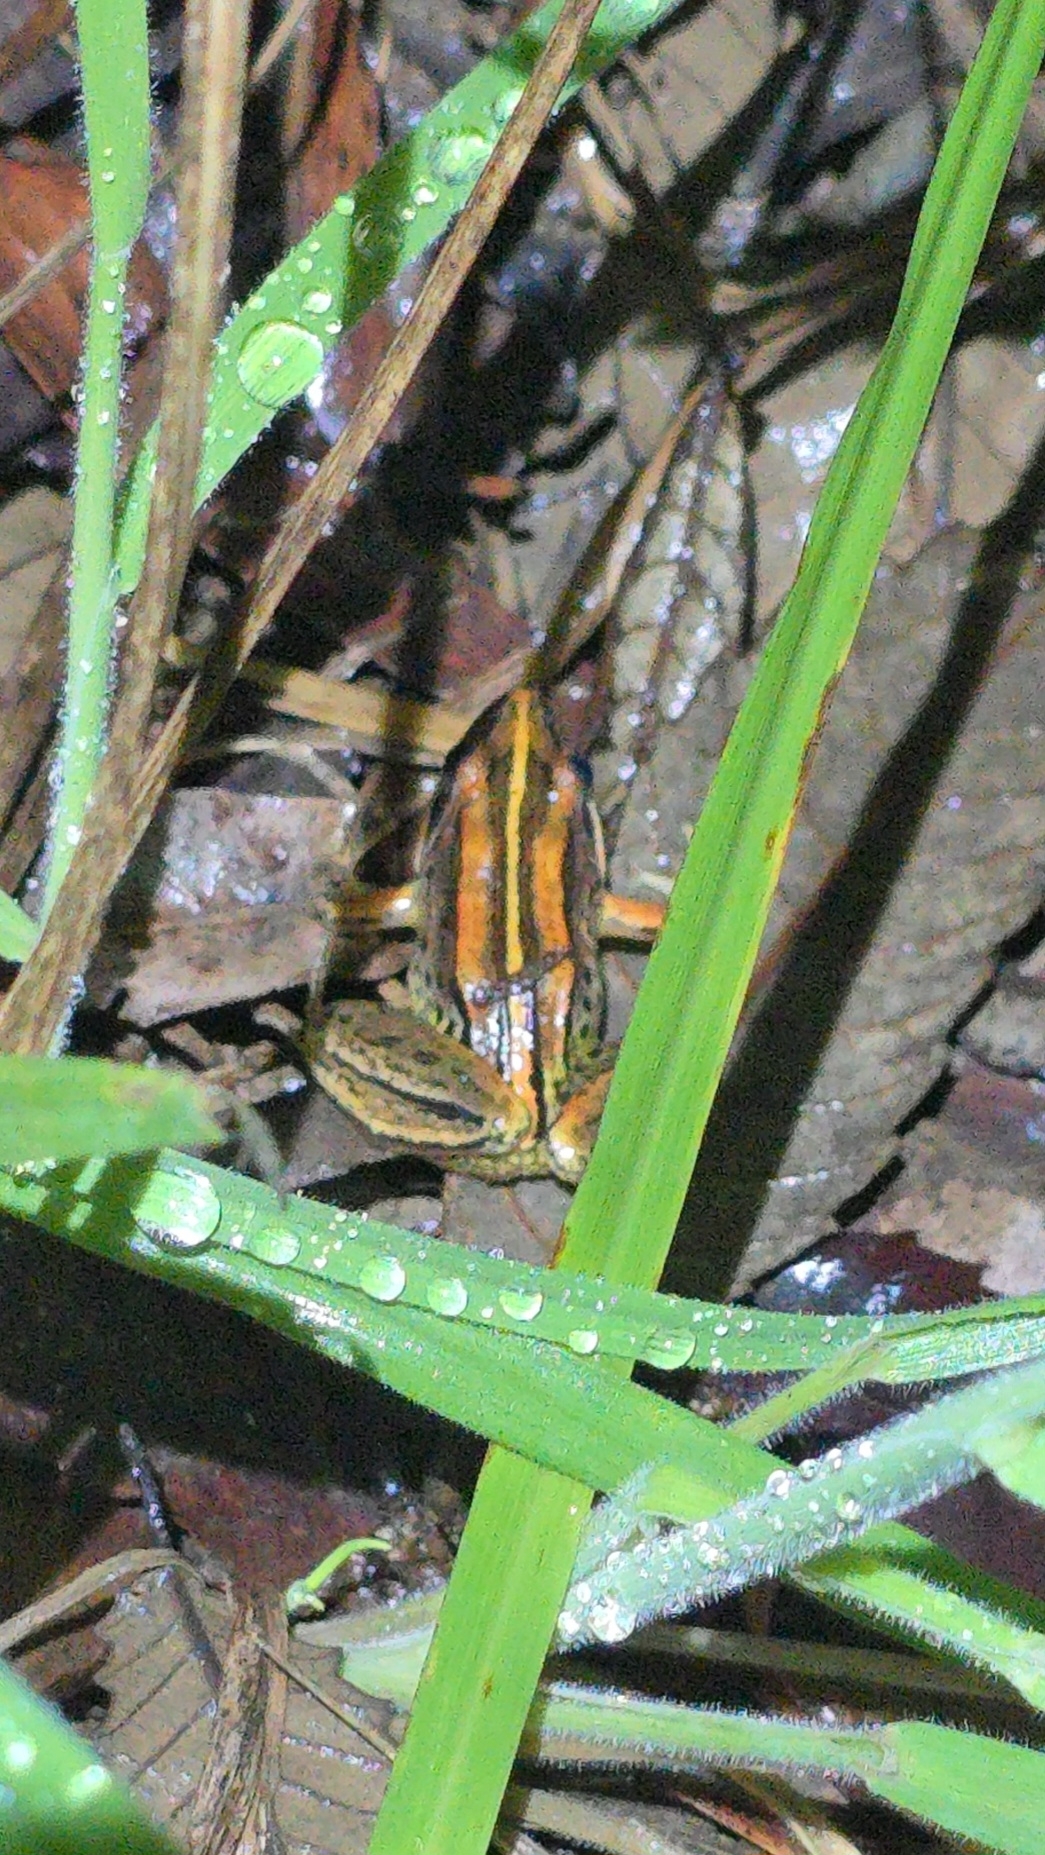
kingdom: Animalia
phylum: Chordata
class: Amphibia
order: Anura
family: Limnodynastidae
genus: Limnodynastes
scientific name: Limnodynastes peronii
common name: Brown frog
